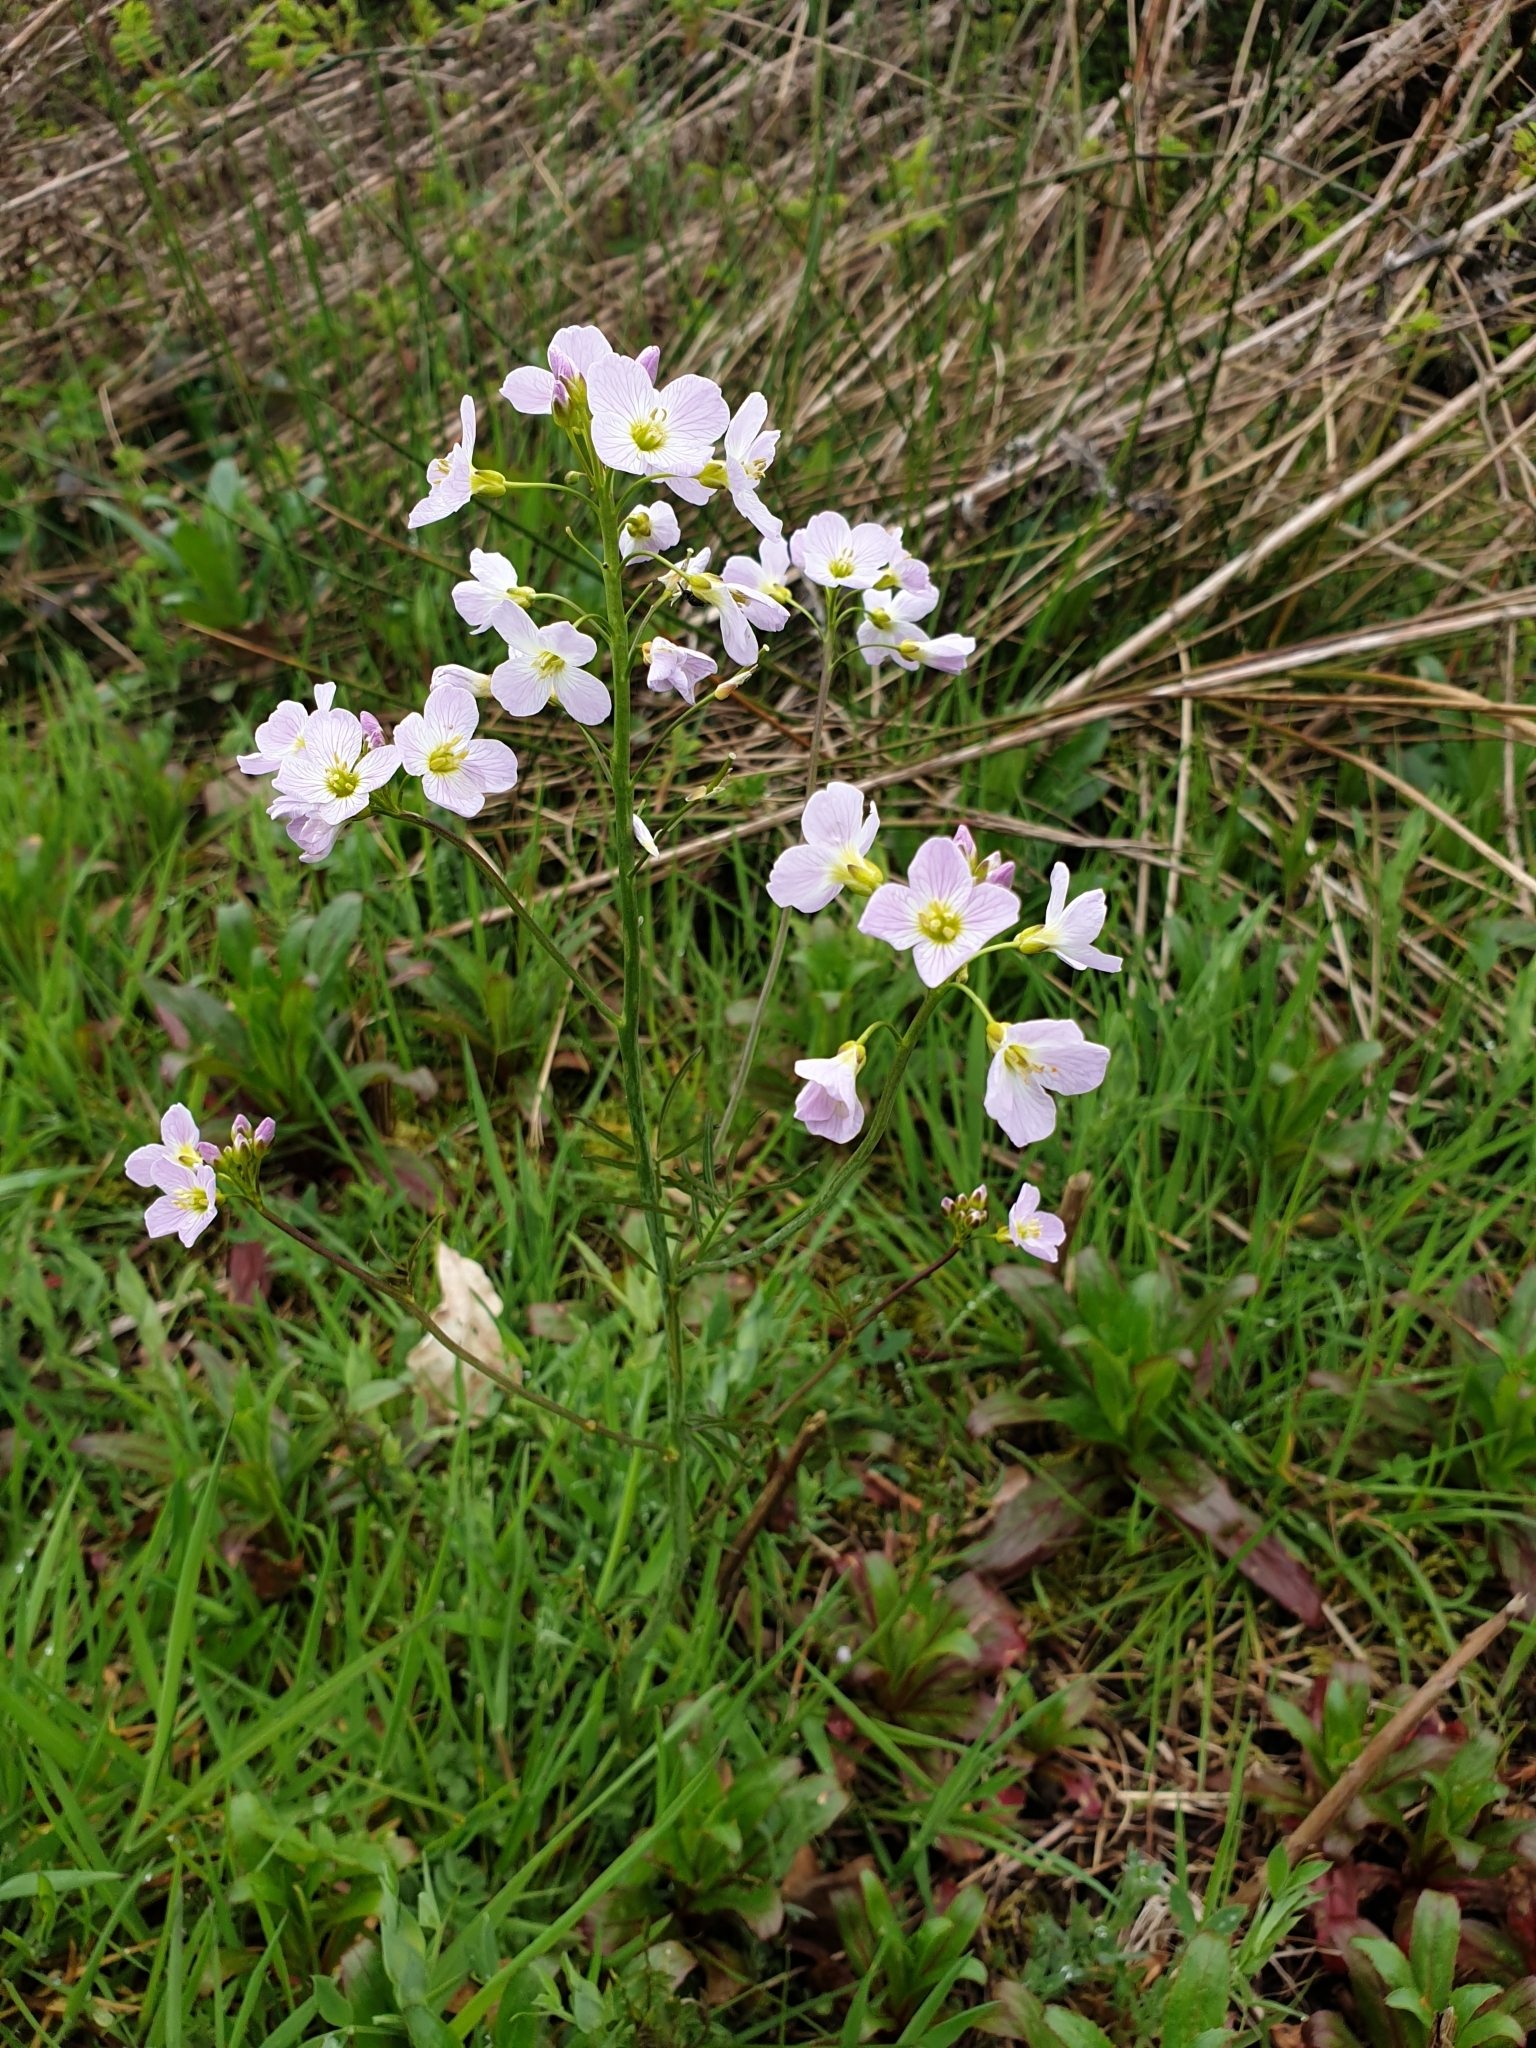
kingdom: Plantae
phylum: Tracheophyta
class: Magnoliopsida
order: Brassicales
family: Brassicaceae
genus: Cardamine
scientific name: Cardamine pratensis
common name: Cuckoo flower
